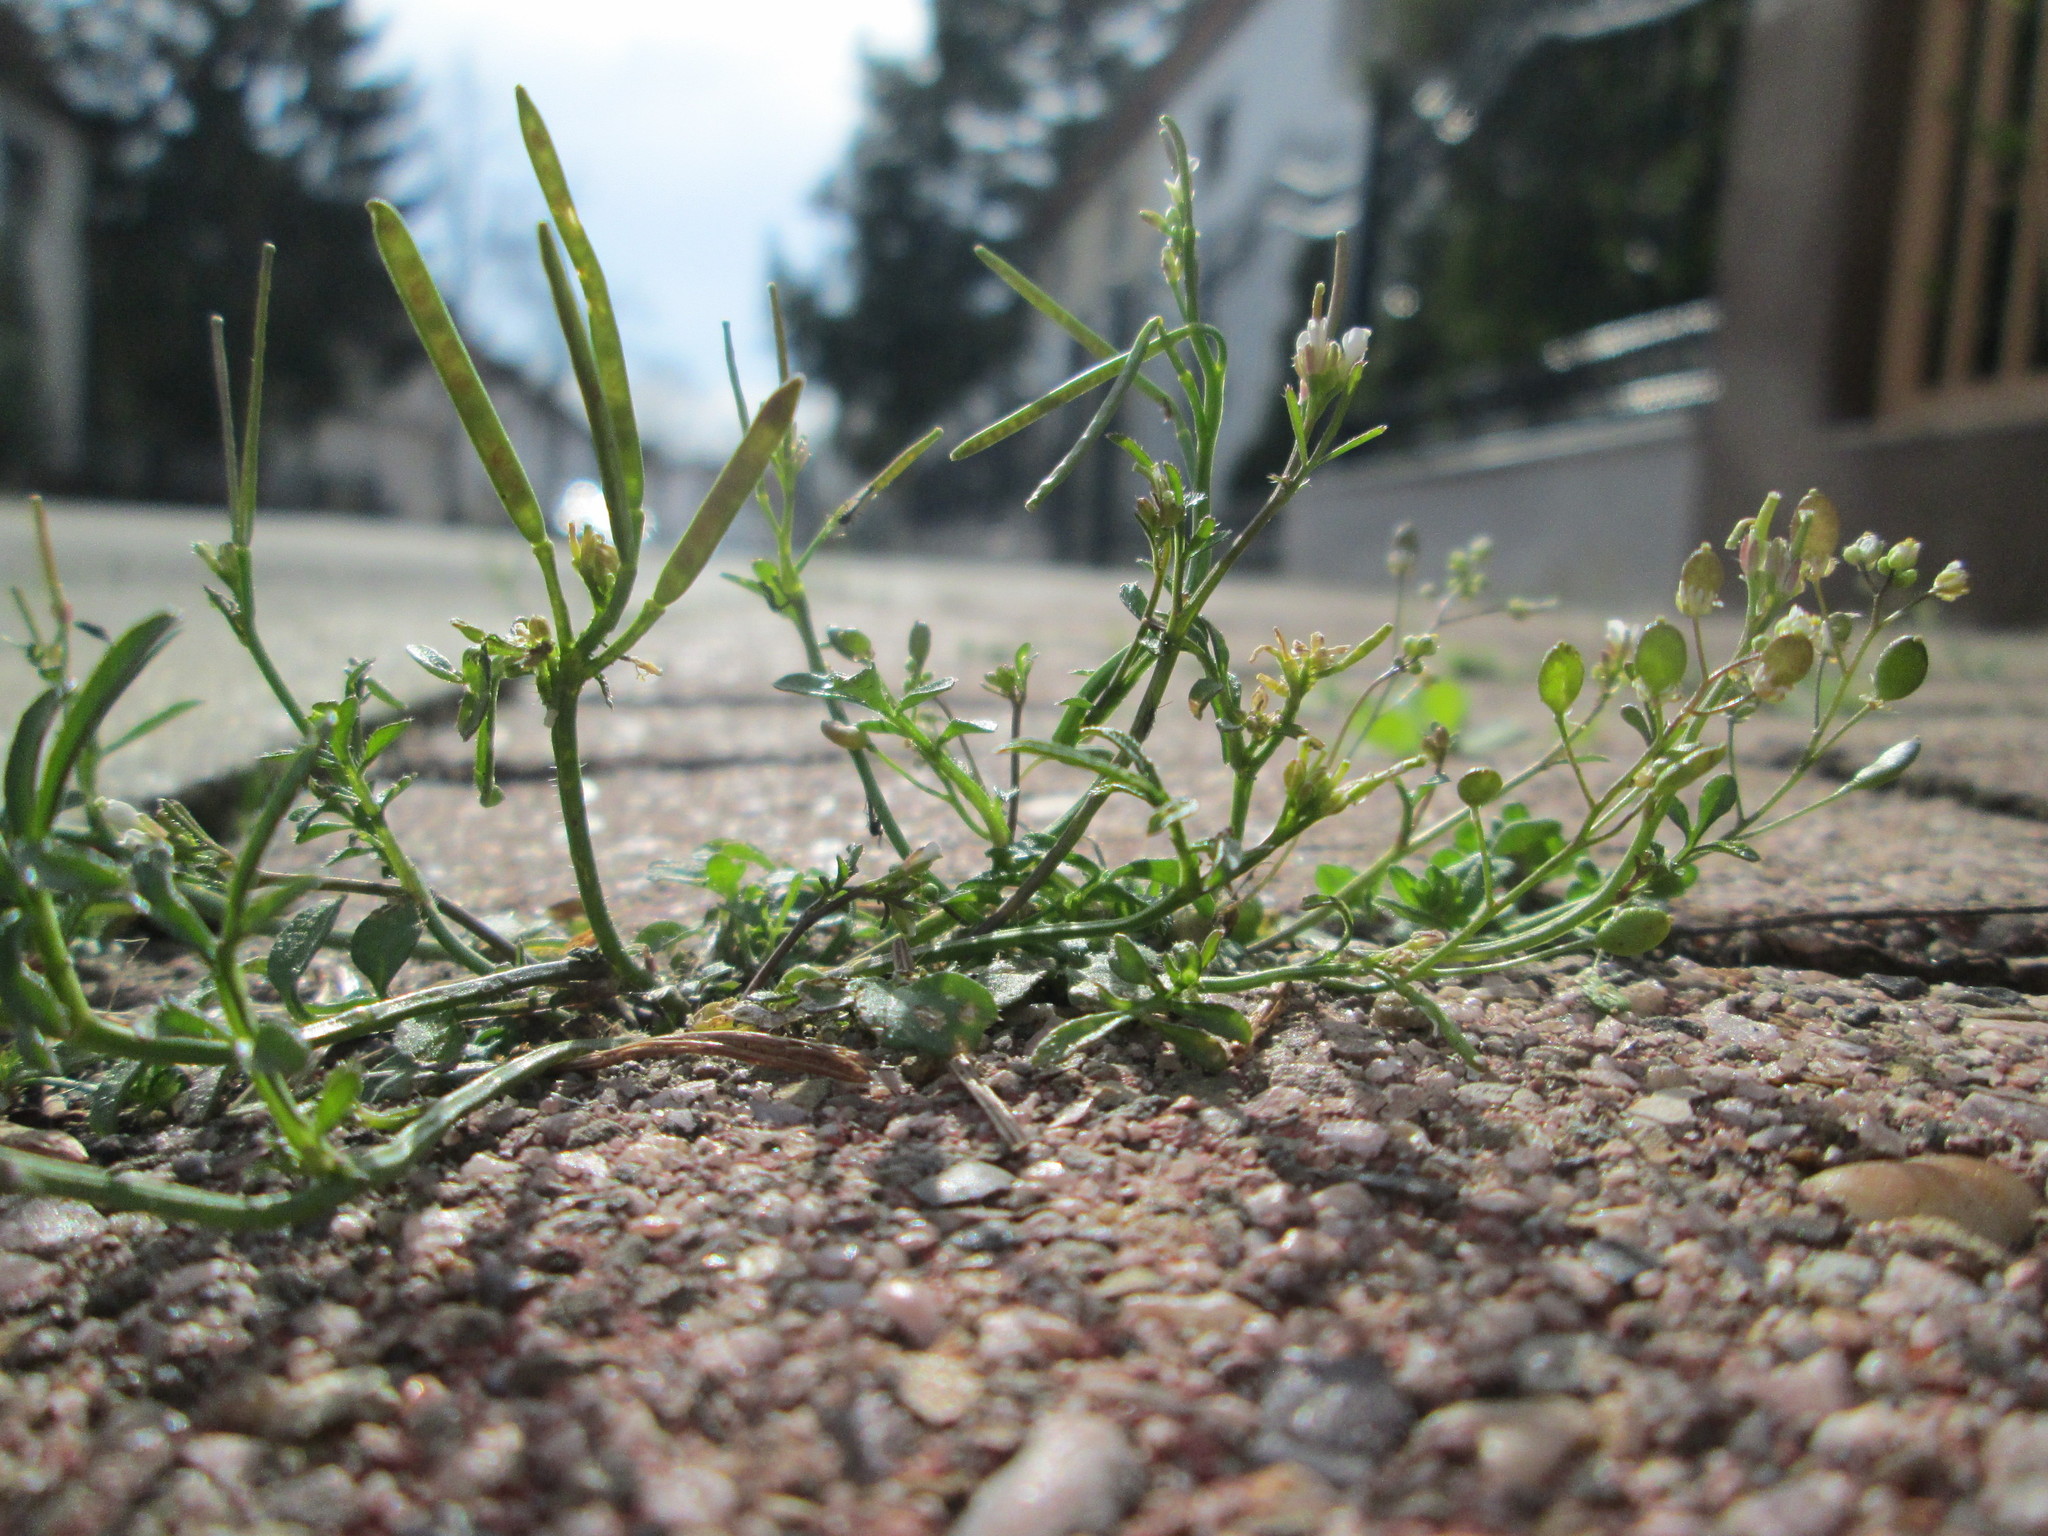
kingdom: Plantae
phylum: Tracheophyta
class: Magnoliopsida
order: Brassicales
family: Brassicaceae
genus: Cardamine
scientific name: Cardamine hirsuta
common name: Hairy bittercress
